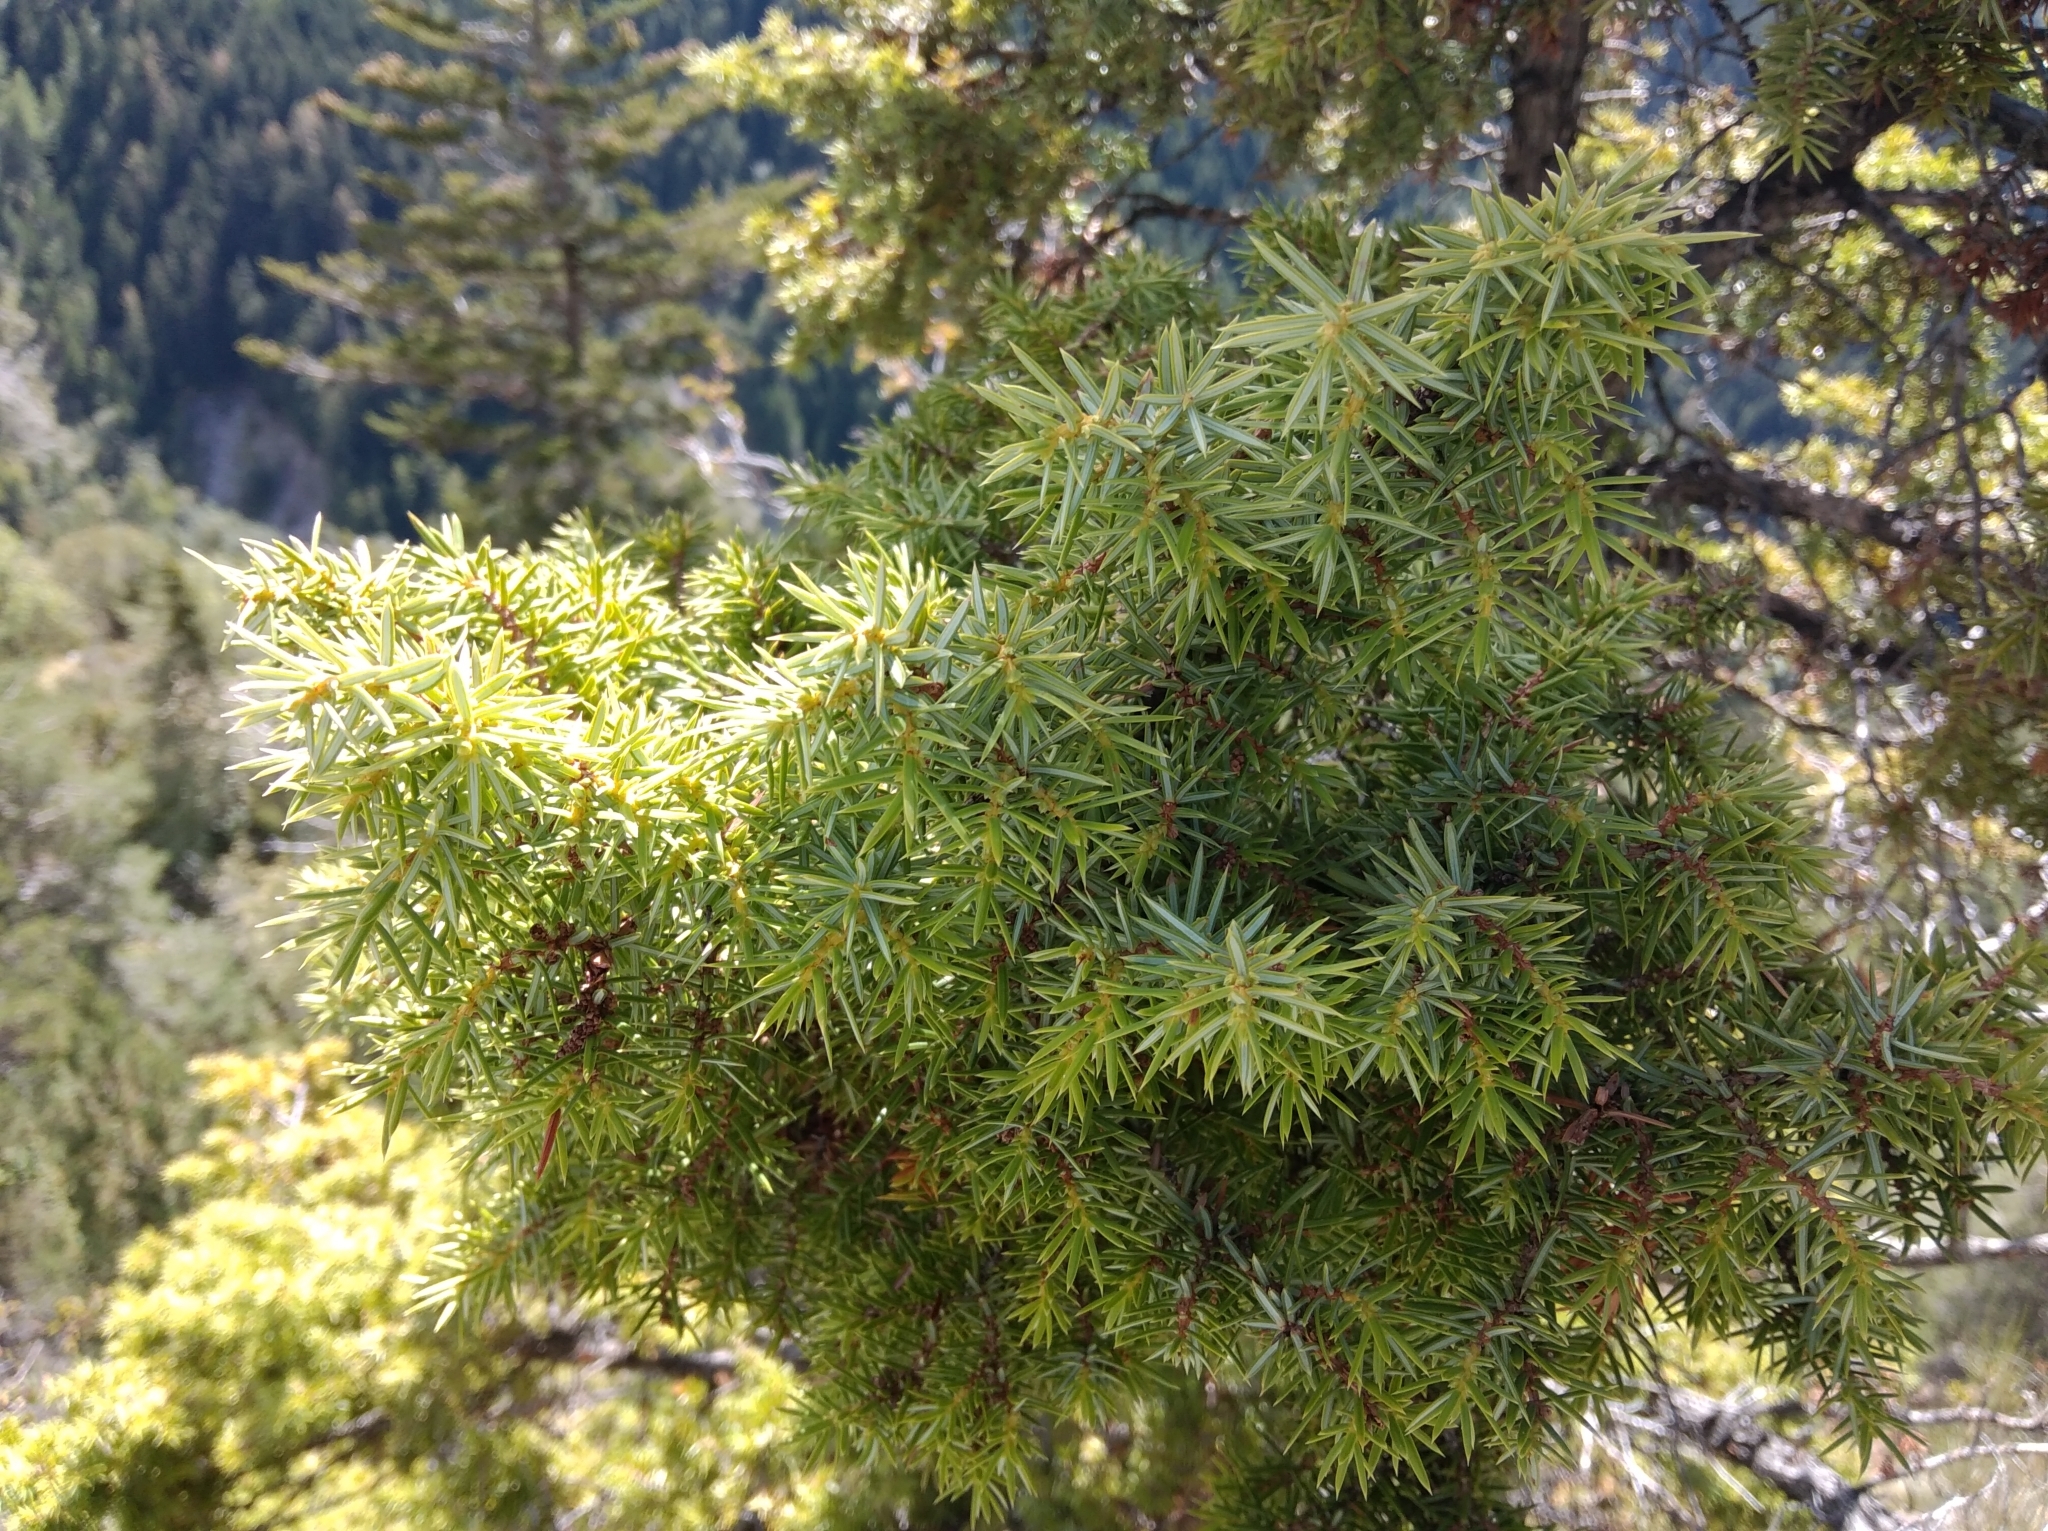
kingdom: Plantae
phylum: Tracheophyta
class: Pinopsida
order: Pinales
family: Cupressaceae
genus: Juniperus
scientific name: Juniperus communis
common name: Common juniper
